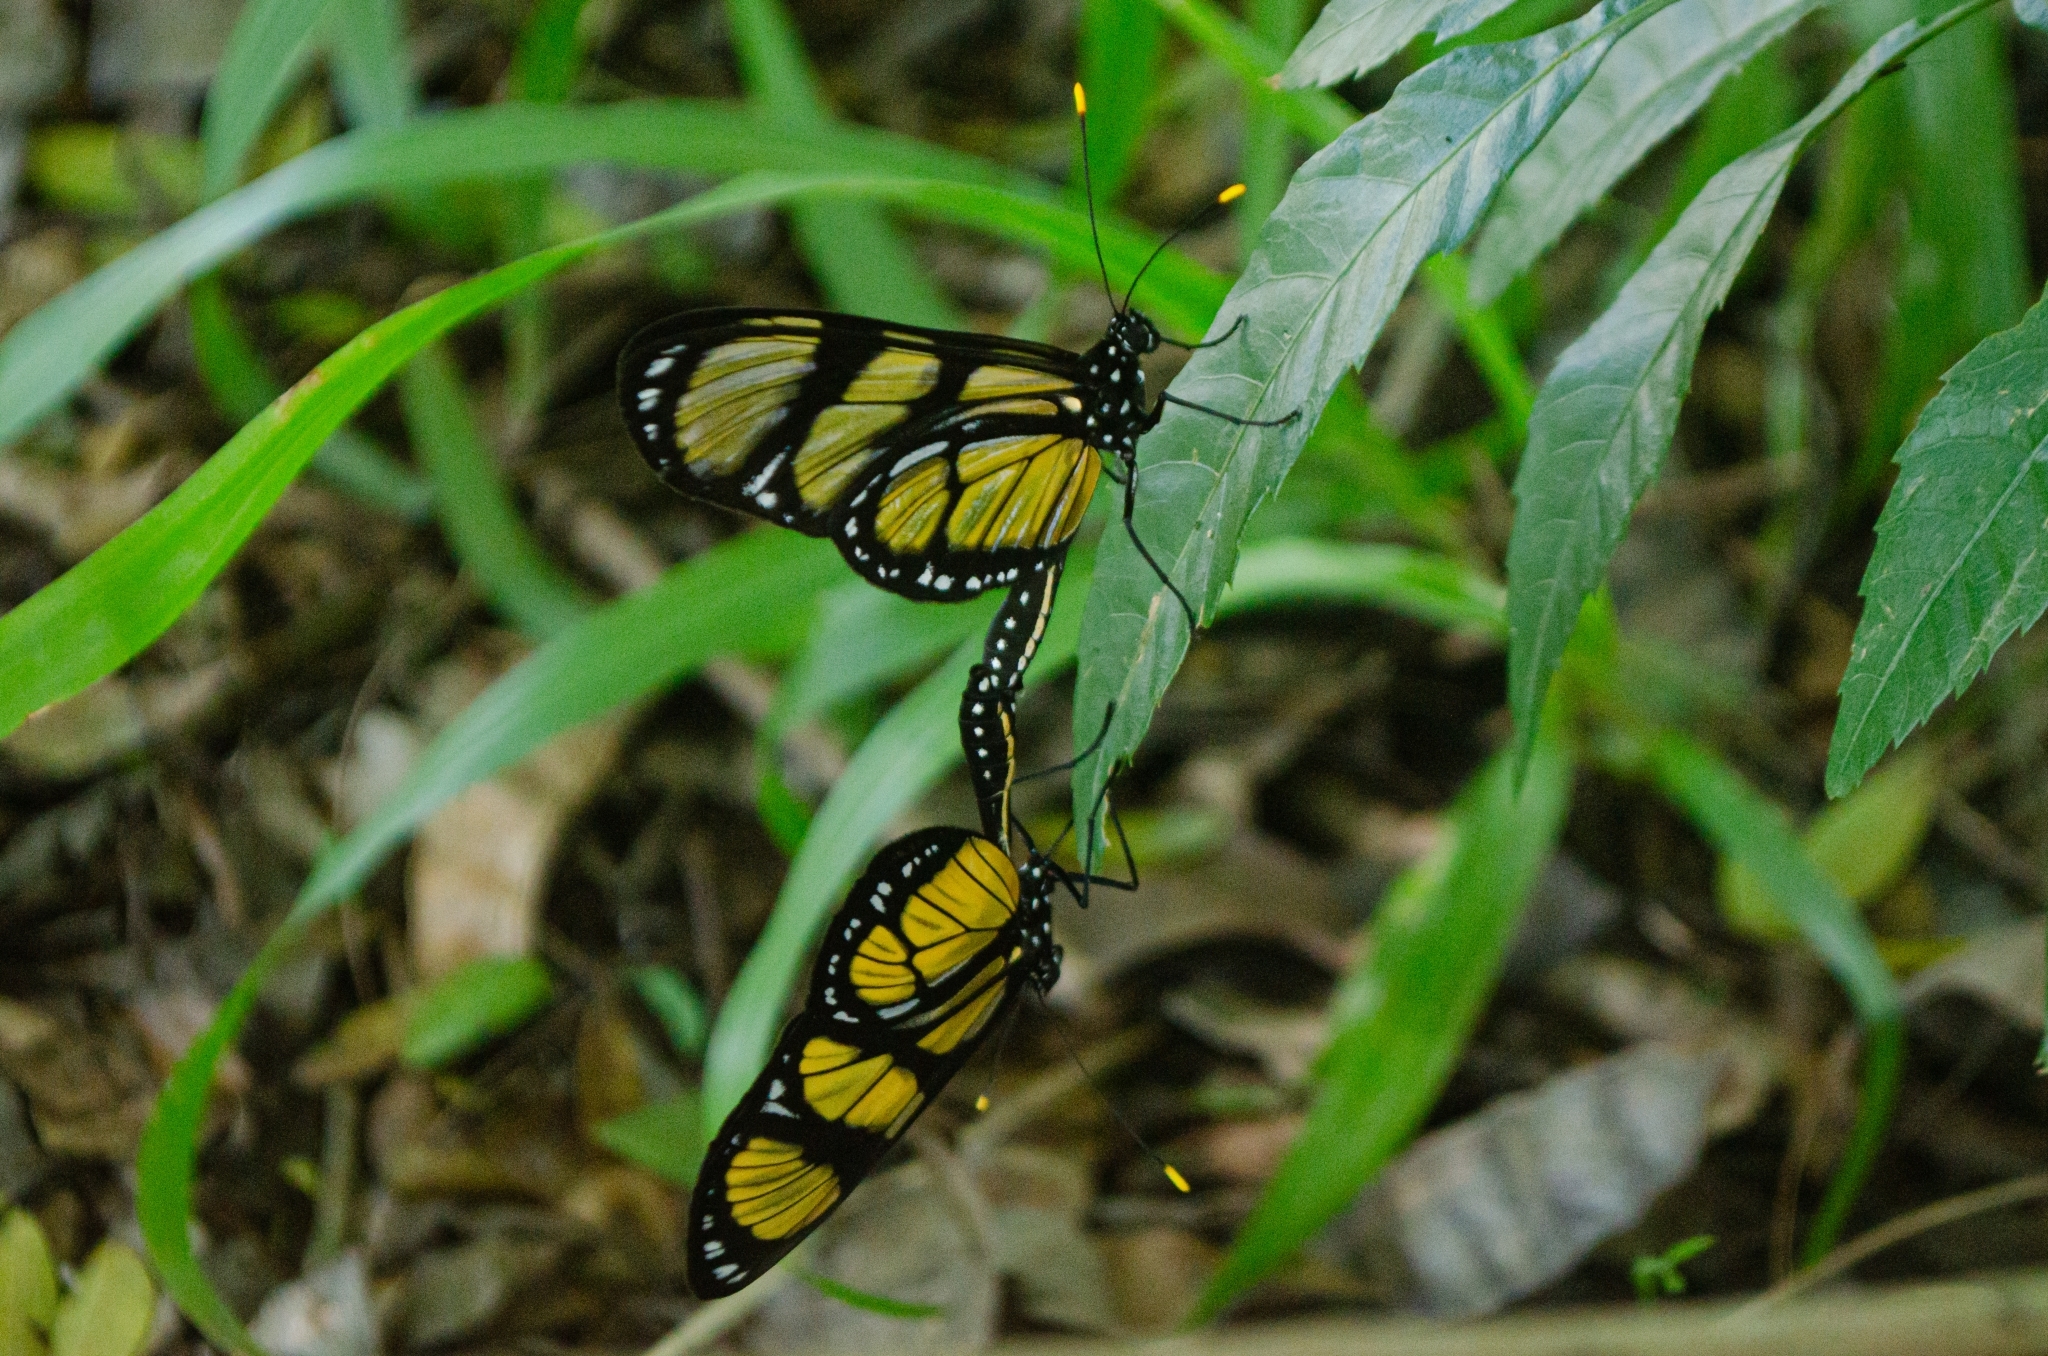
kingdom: Animalia
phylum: Arthropoda
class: Insecta
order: Lepidoptera
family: Nymphalidae
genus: Methona
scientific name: Methona themisto
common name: Themisto amberwing
